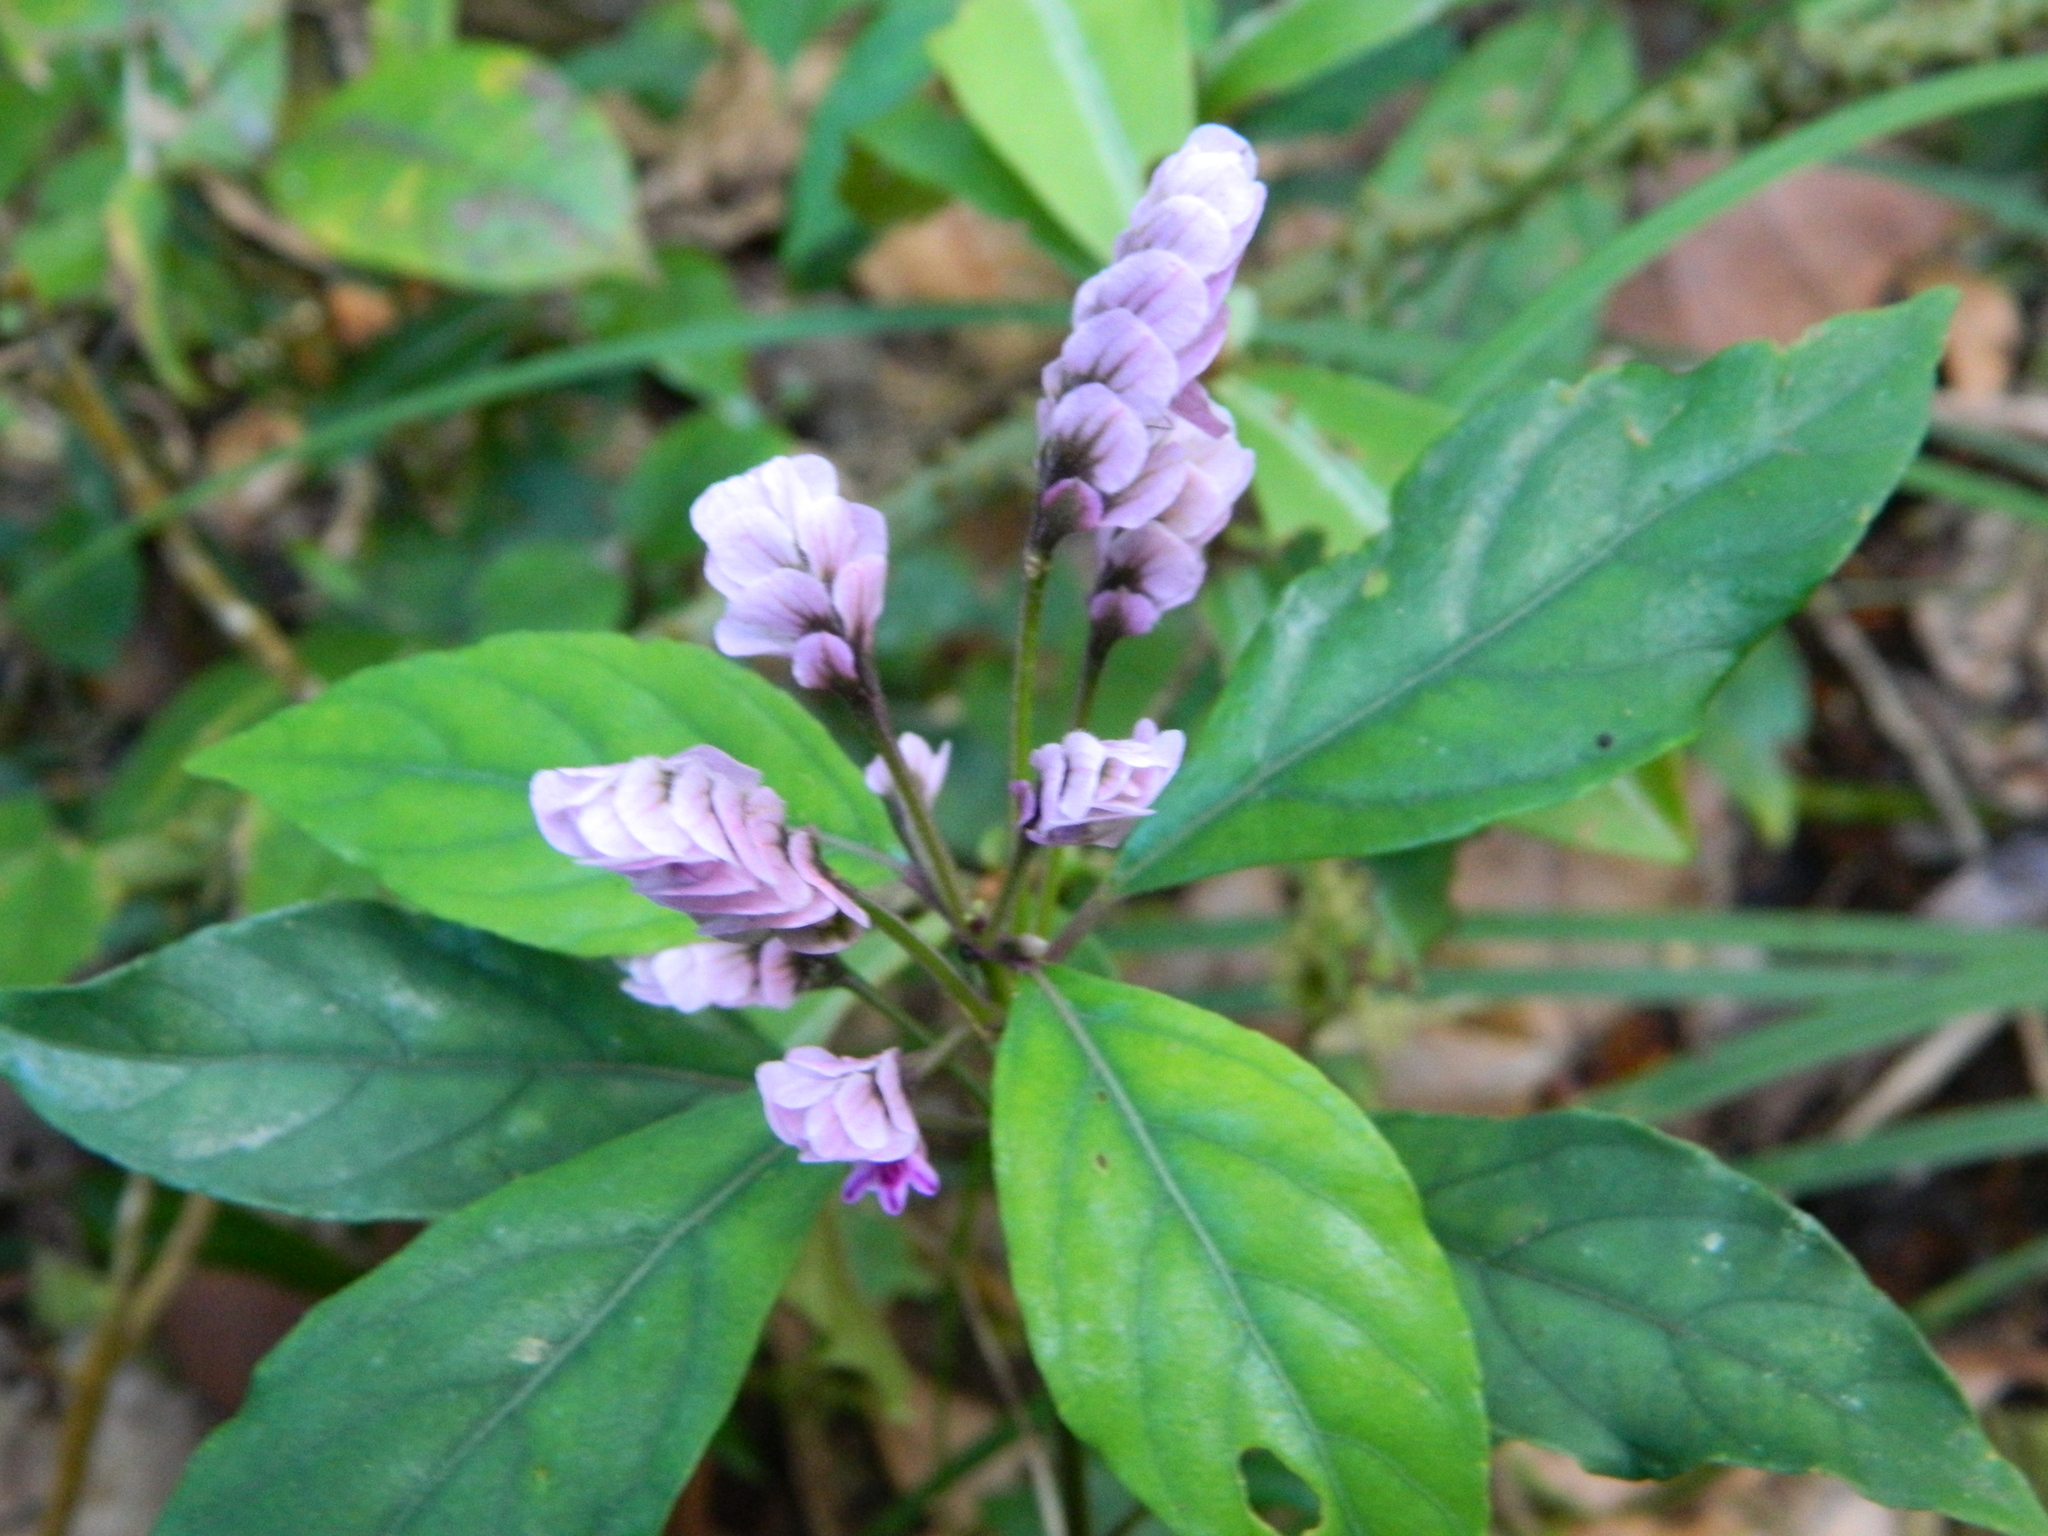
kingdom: Plantae
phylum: Tracheophyta
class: Magnoliopsida
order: Lamiales
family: Acanthaceae
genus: Justicia
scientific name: Justicia rhodoptera
